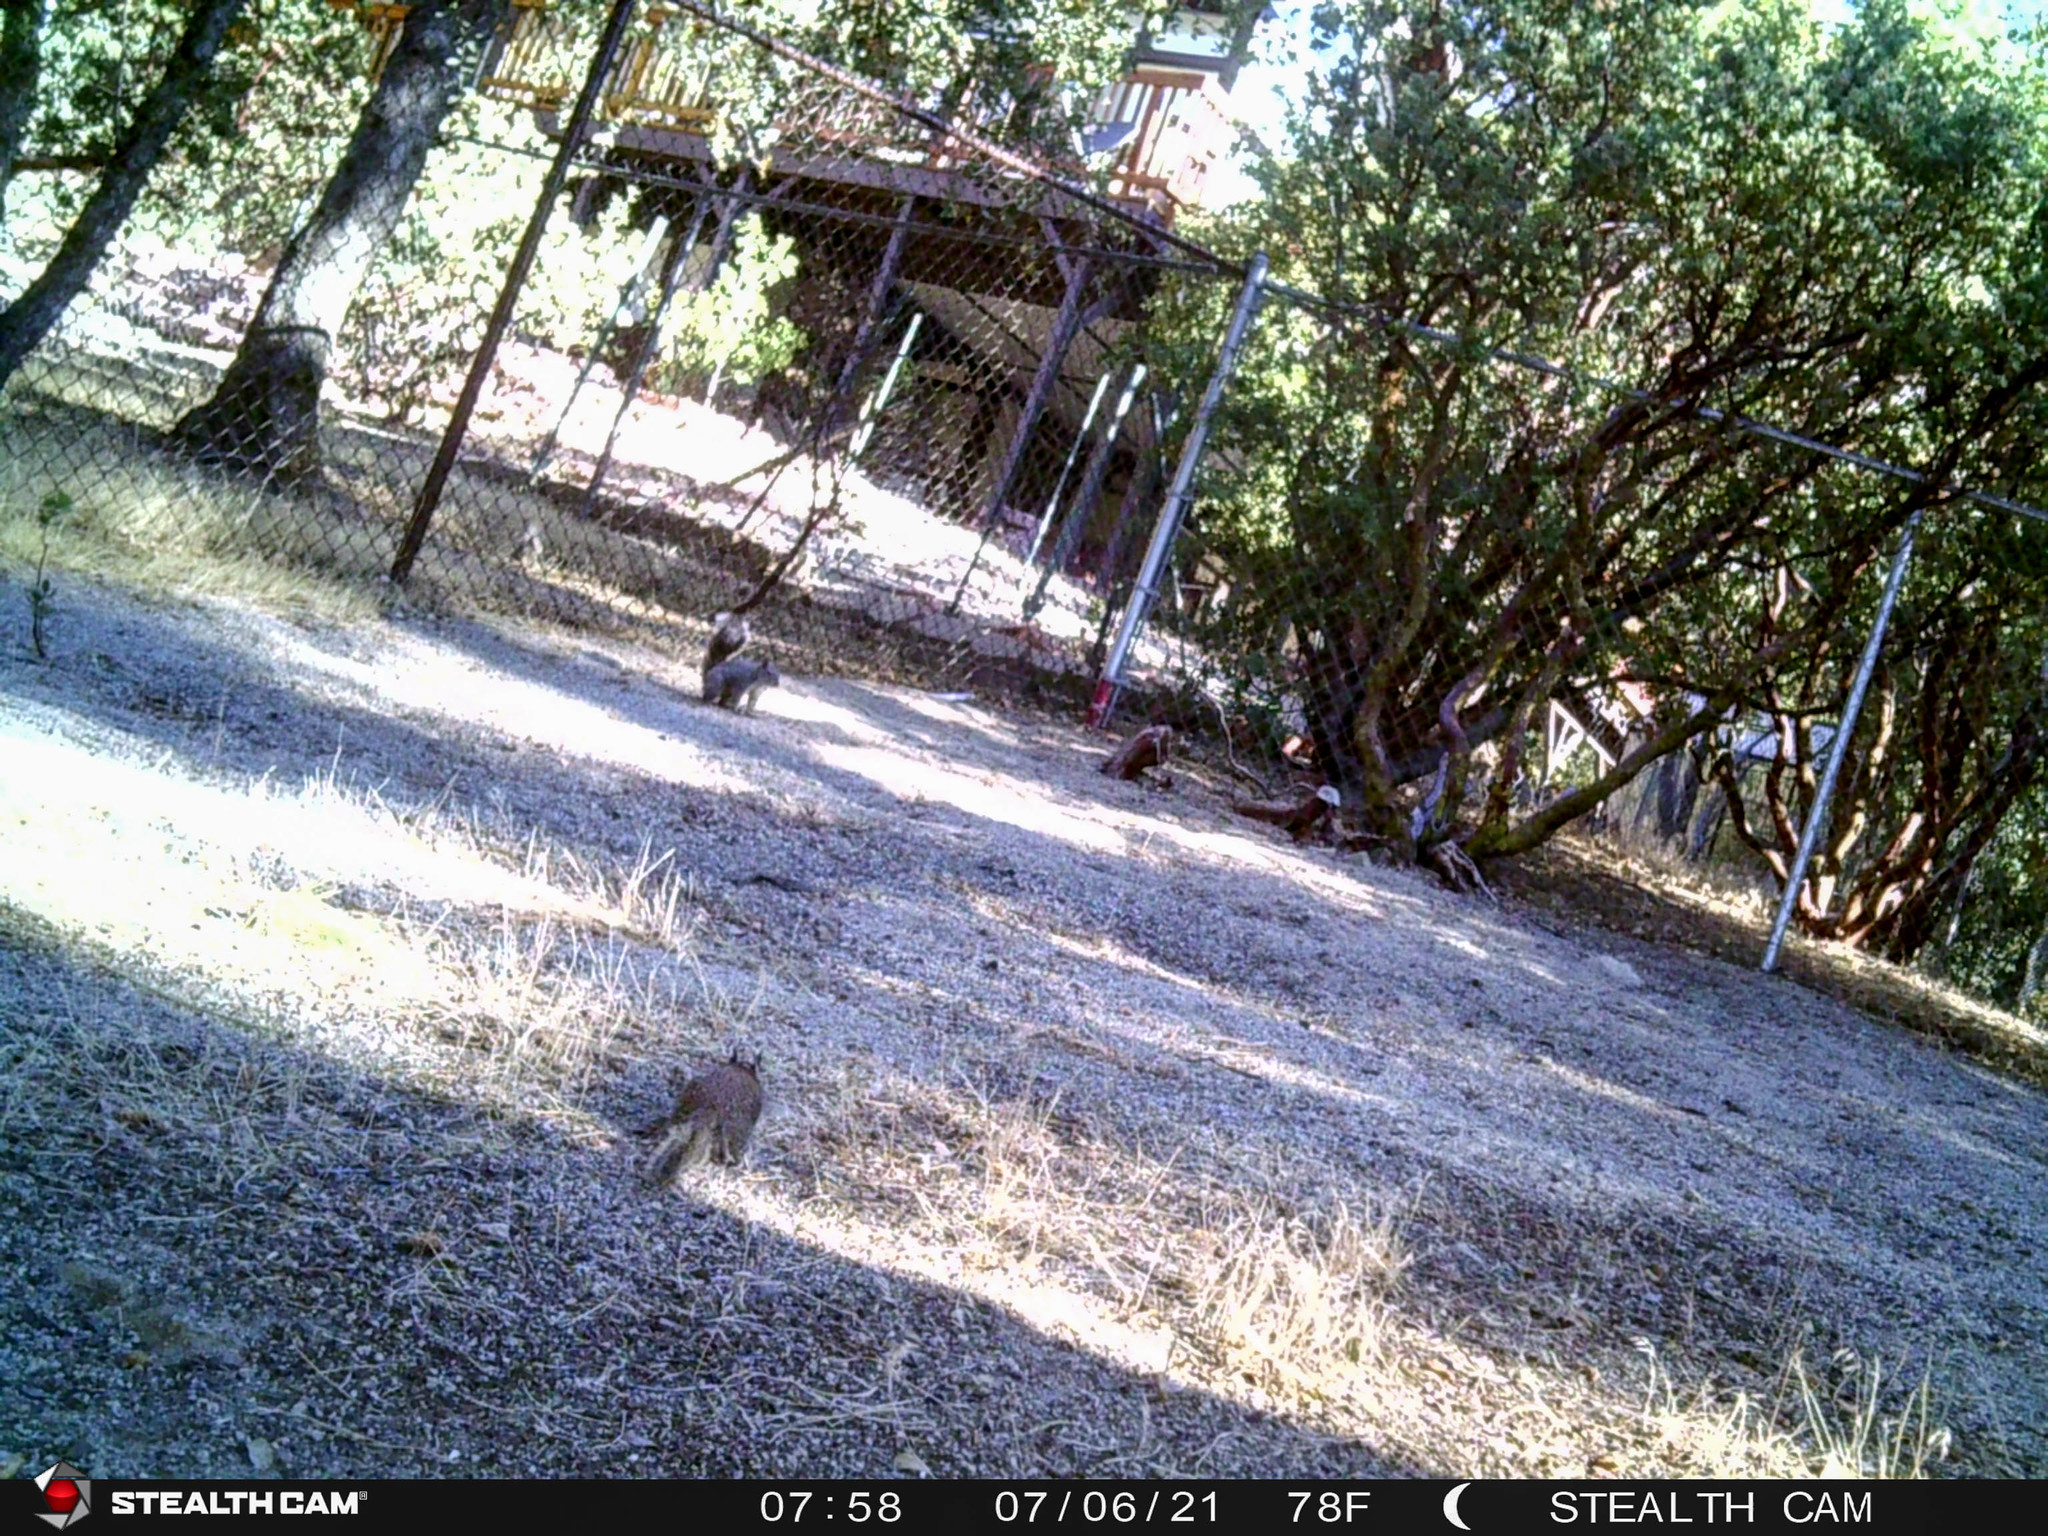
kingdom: Animalia
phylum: Chordata
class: Mammalia
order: Rodentia
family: Sciuridae
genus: Otospermophilus
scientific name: Otospermophilus beecheyi
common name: California ground squirrel
